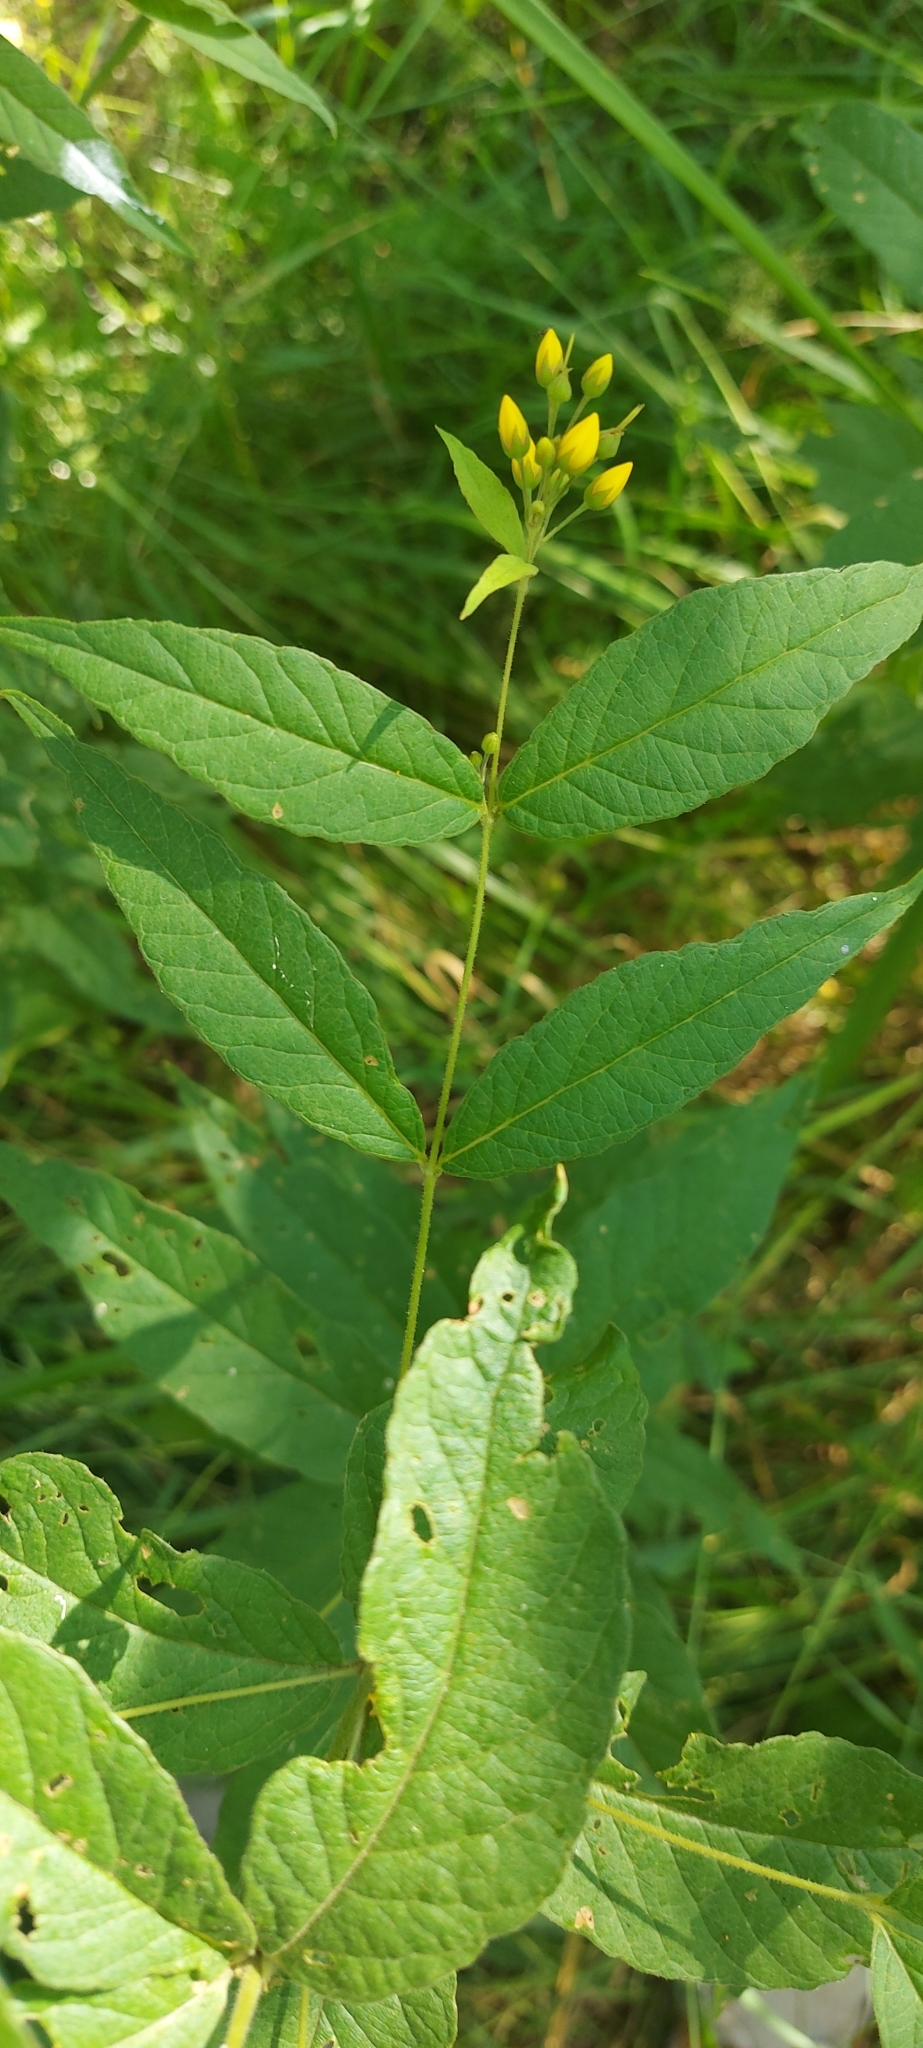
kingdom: Plantae
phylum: Tracheophyta
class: Magnoliopsida
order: Ericales
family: Primulaceae
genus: Lysimachia
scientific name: Lysimachia vulgaris
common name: Yellow loosestrife
